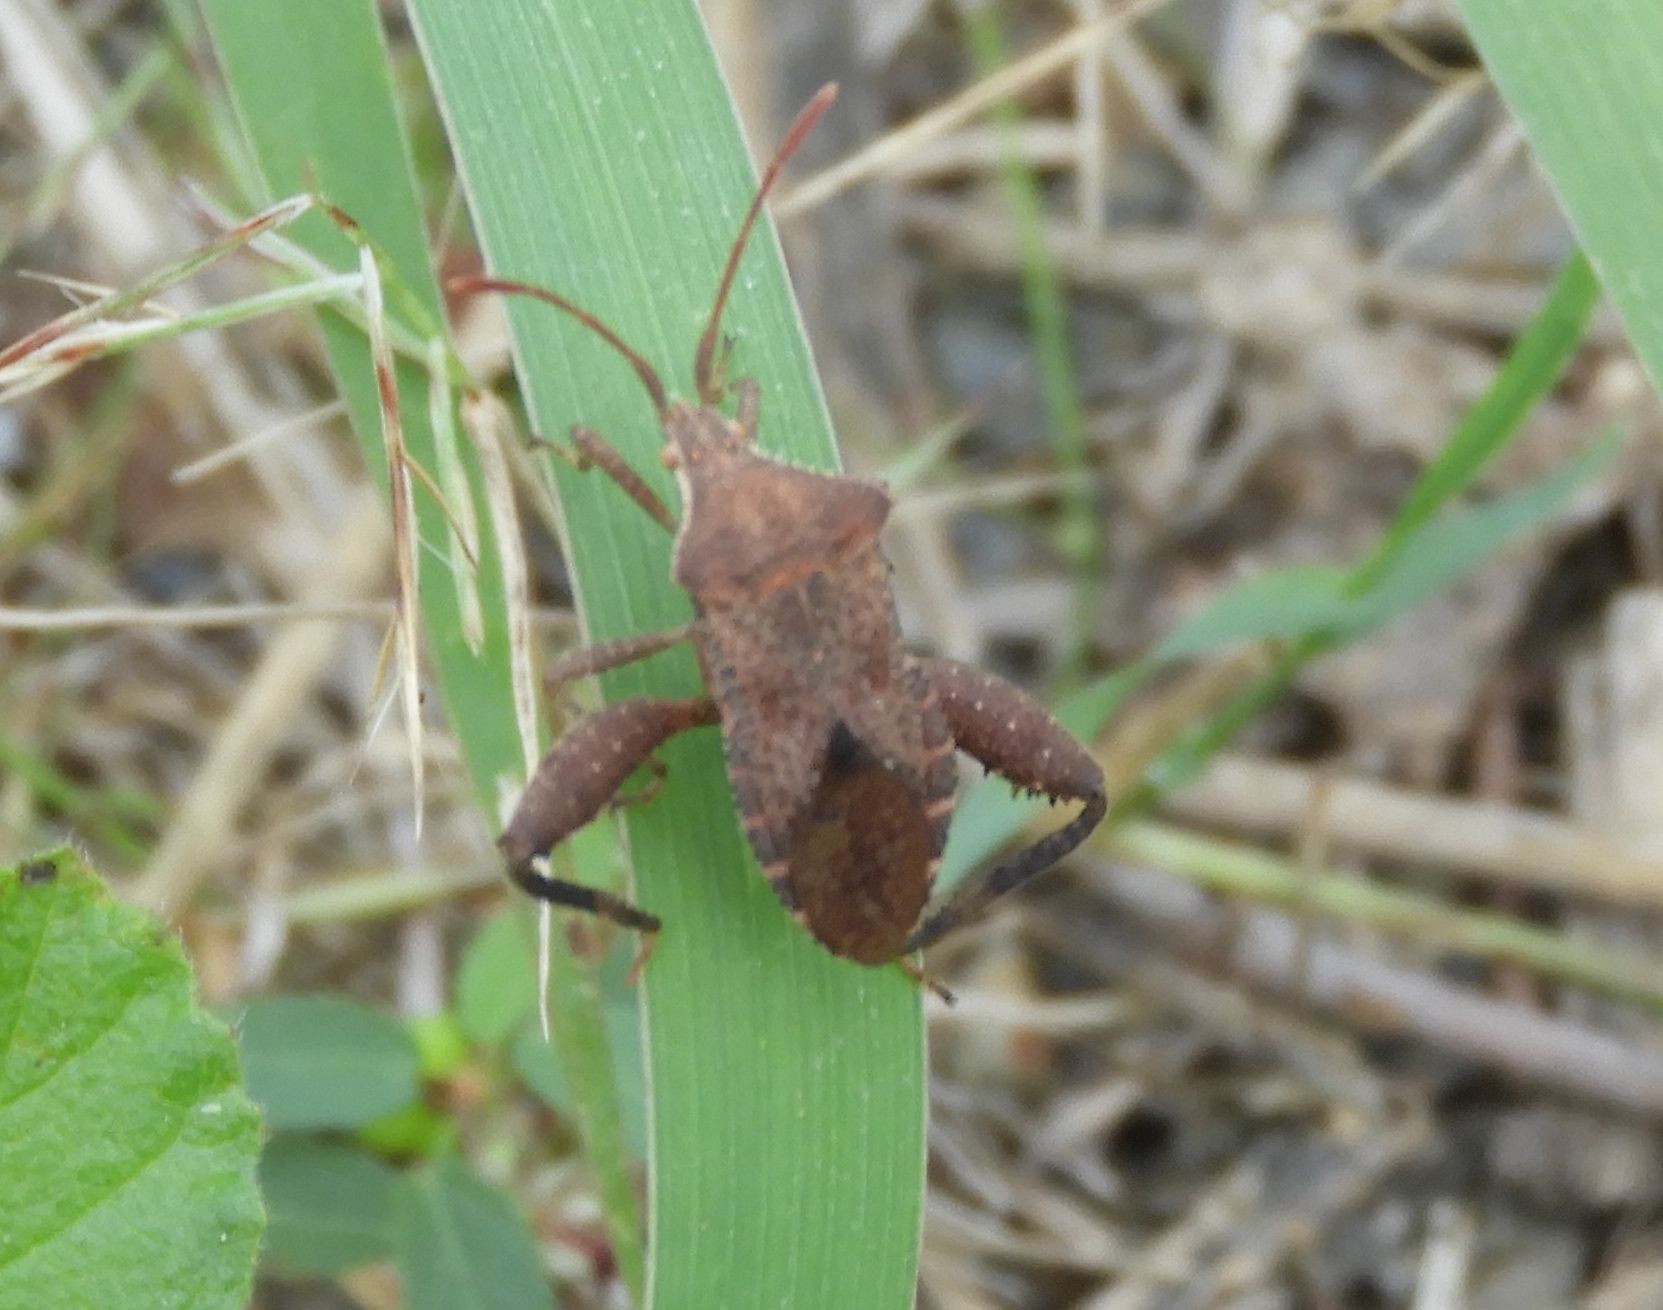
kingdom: Animalia
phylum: Arthropoda
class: Insecta
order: Hemiptera
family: Coreidae
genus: Mamurius
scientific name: Mamurius mopsus
